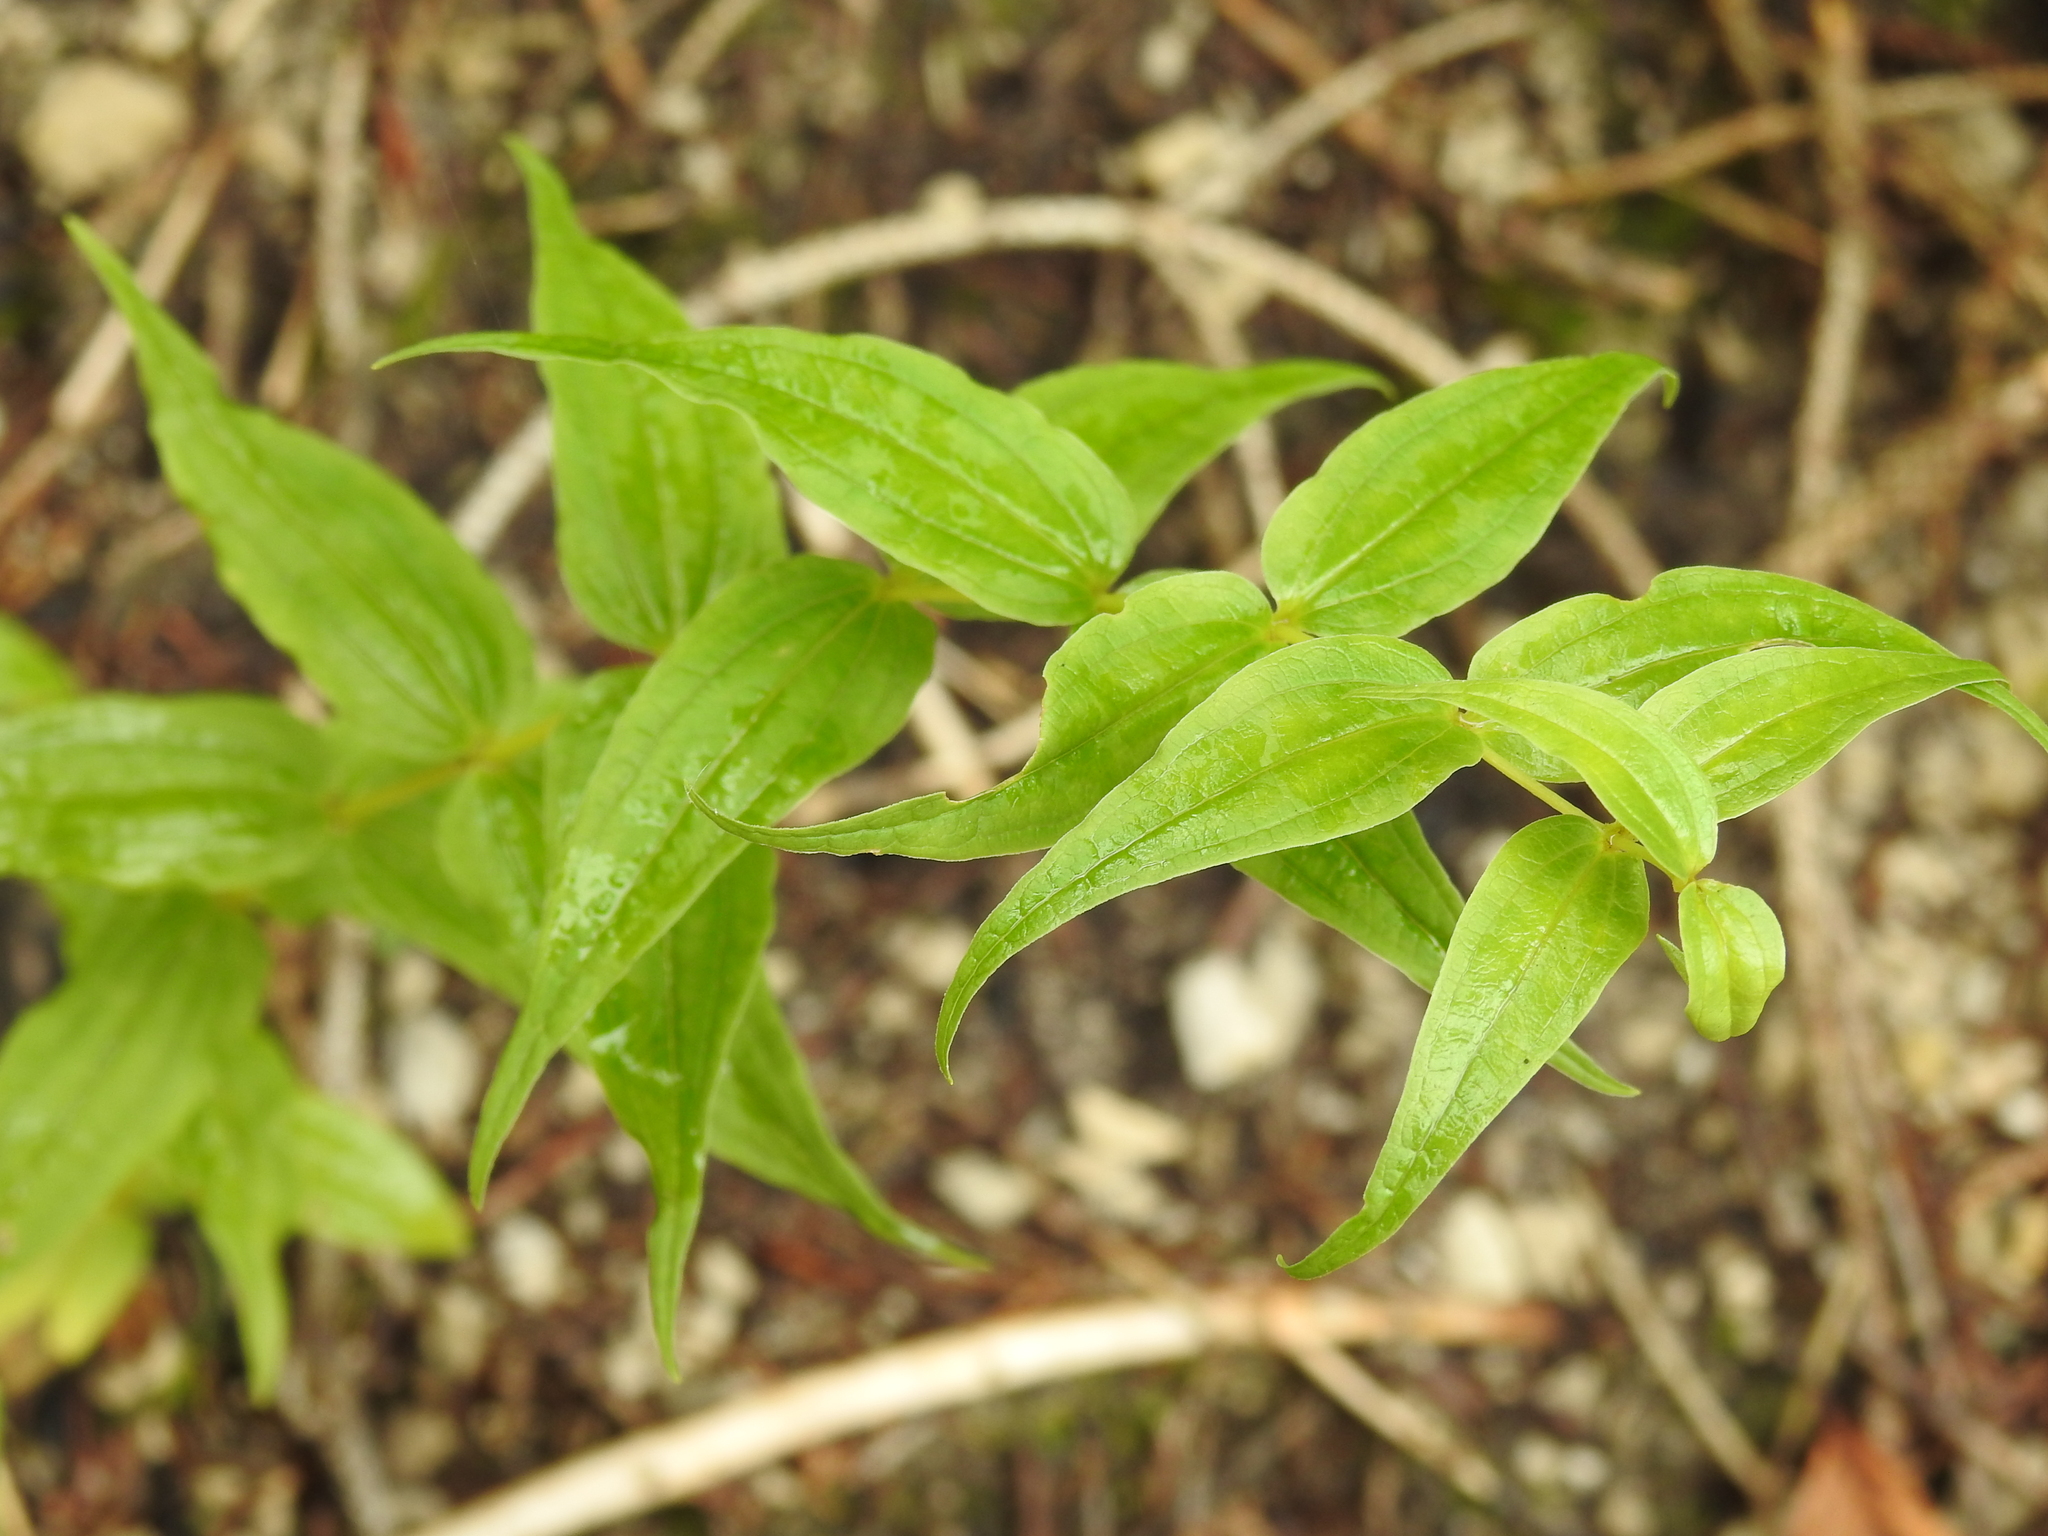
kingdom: Plantae
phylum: Tracheophyta
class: Magnoliopsida
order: Gentianales
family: Gentianaceae
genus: Gentiana
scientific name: Gentiana asclepiadea
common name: Willow gentian
